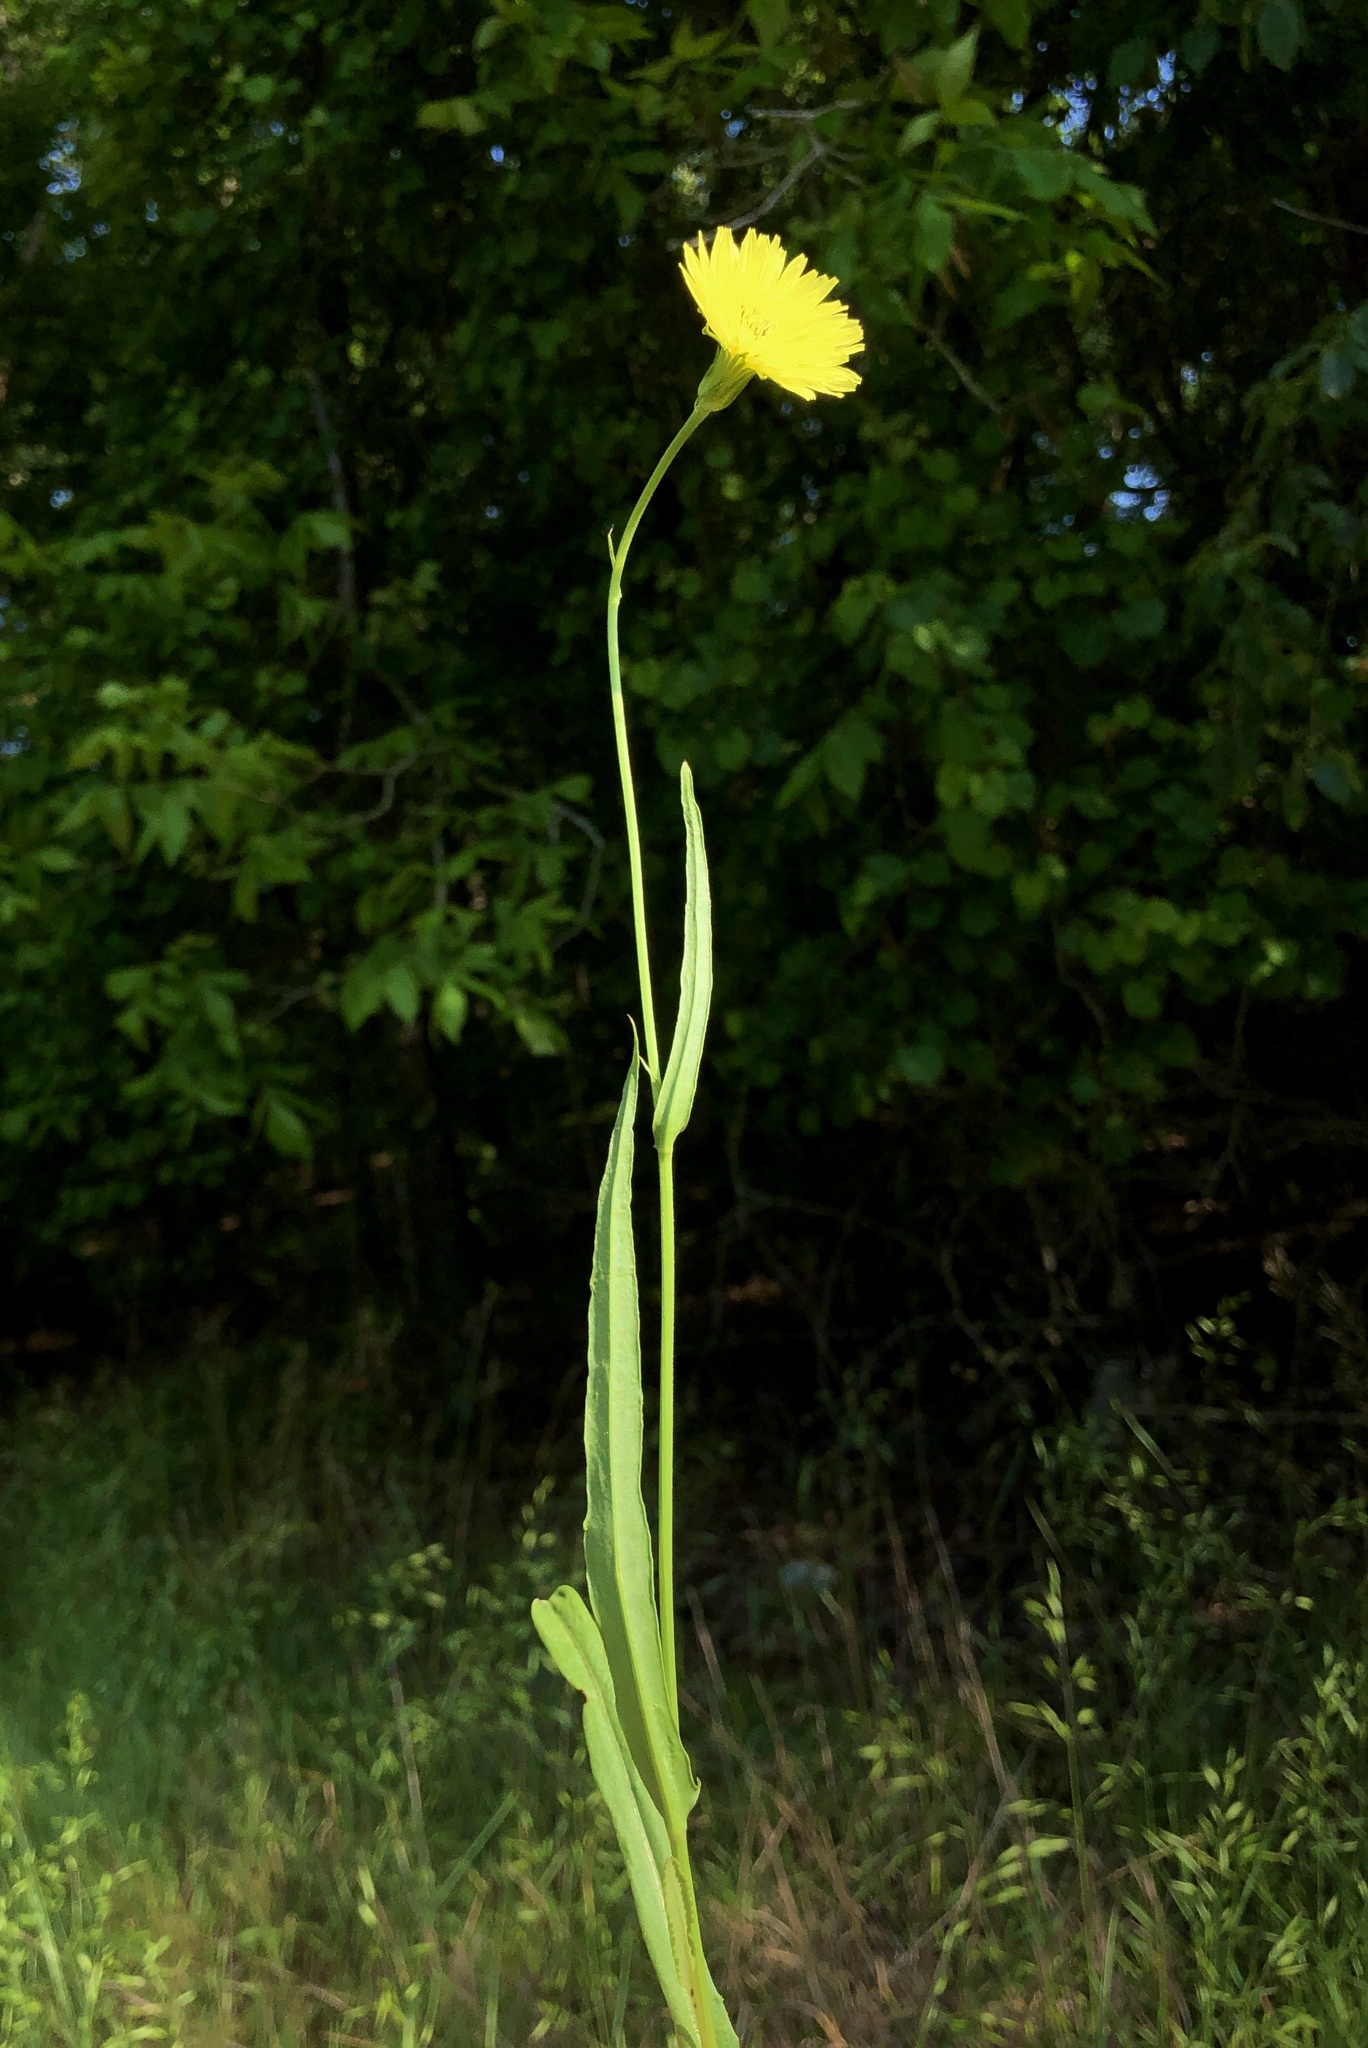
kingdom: Plantae
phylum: Tracheophyta
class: Magnoliopsida
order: Asterales
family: Asteraceae
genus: Pyrrhopappus
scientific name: Pyrrhopappus carolinianus
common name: Carolina desert-chicory
